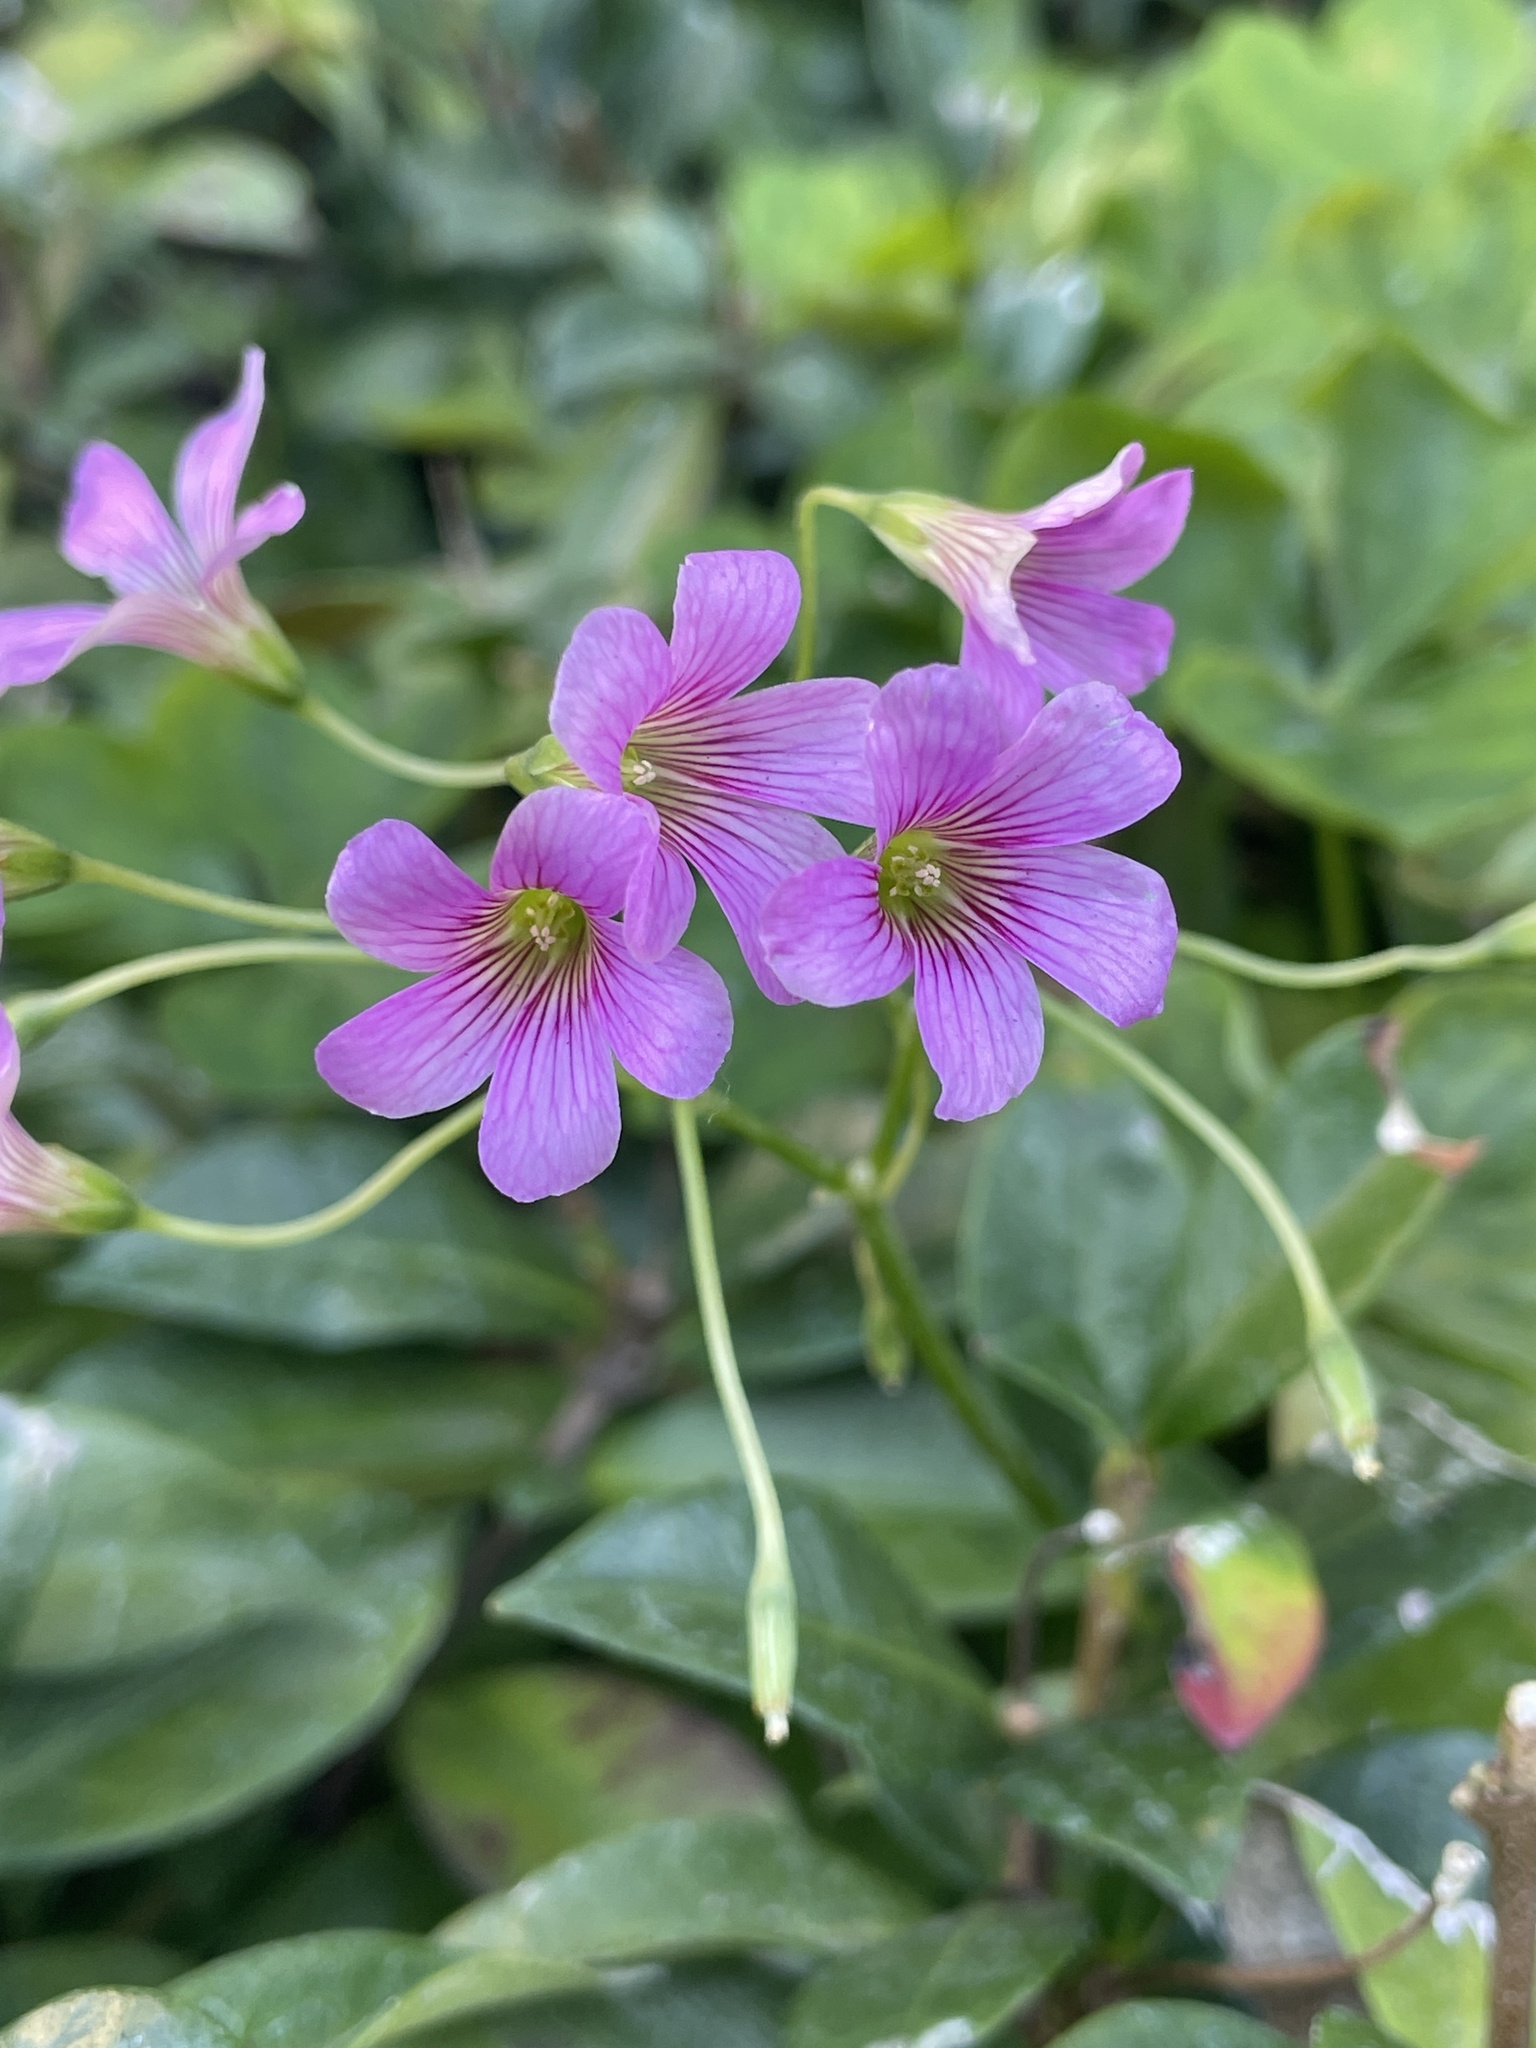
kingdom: Plantae
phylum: Tracheophyta
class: Magnoliopsida
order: Oxalidales
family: Oxalidaceae
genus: Oxalis
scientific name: Oxalis debilis
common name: Large-flowered pink-sorrel
